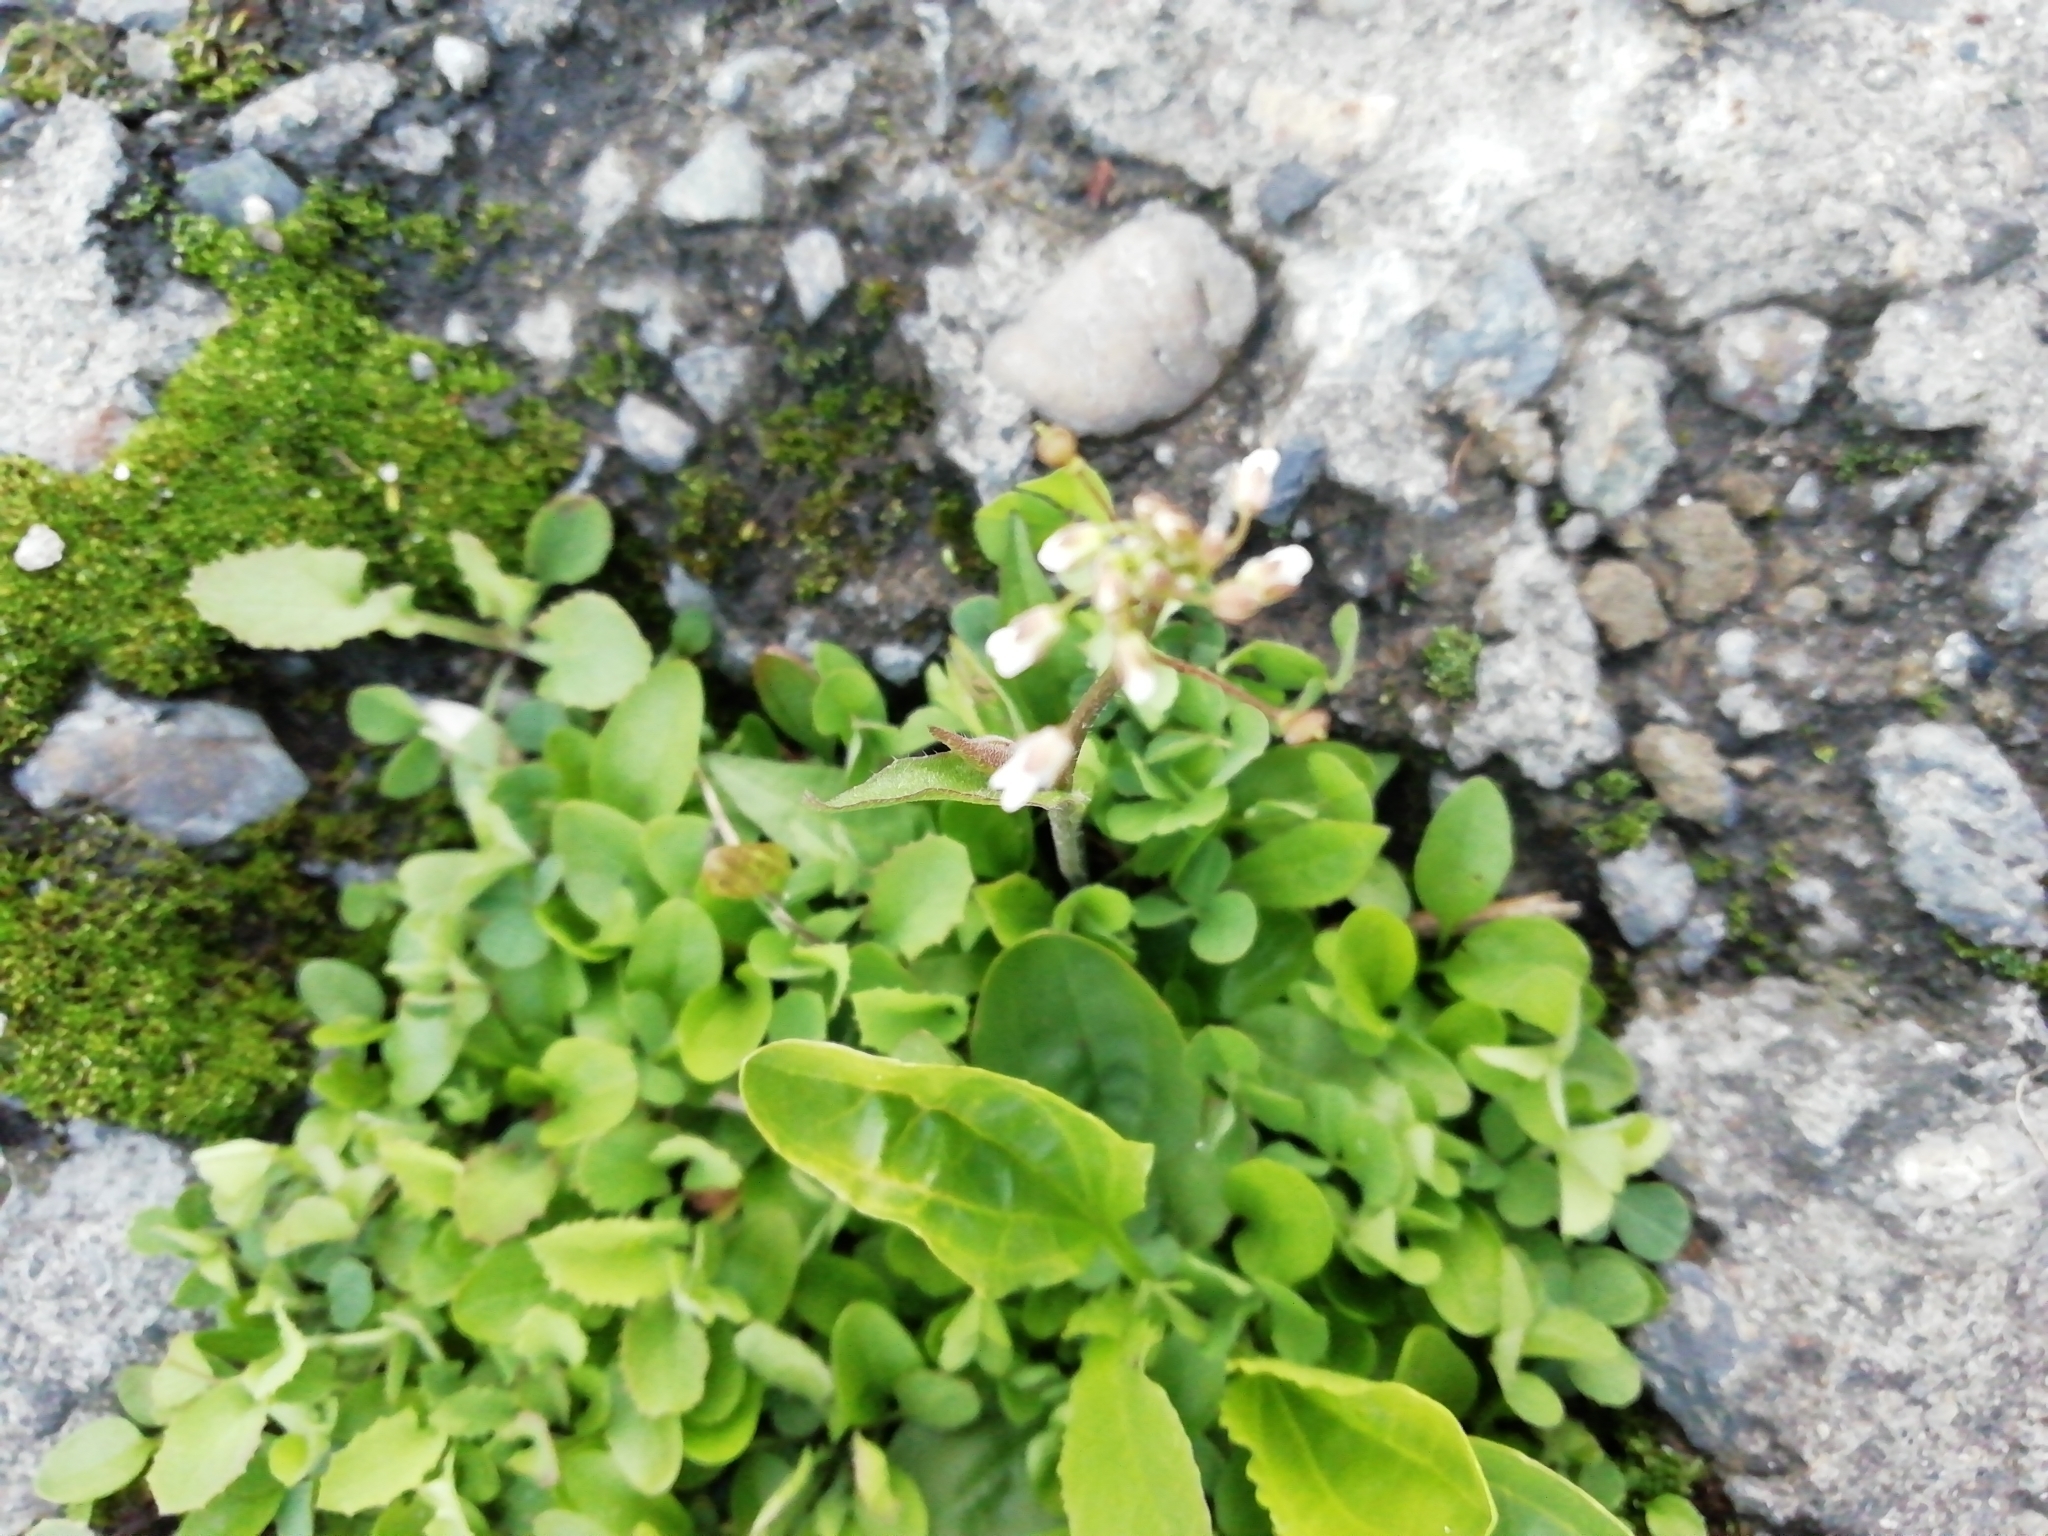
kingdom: Plantae
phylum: Tracheophyta
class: Magnoliopsida
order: Brassicales
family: Brassicaceae
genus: Capsella
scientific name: Capsella bursa-pastoris
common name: Shepherd's purse
